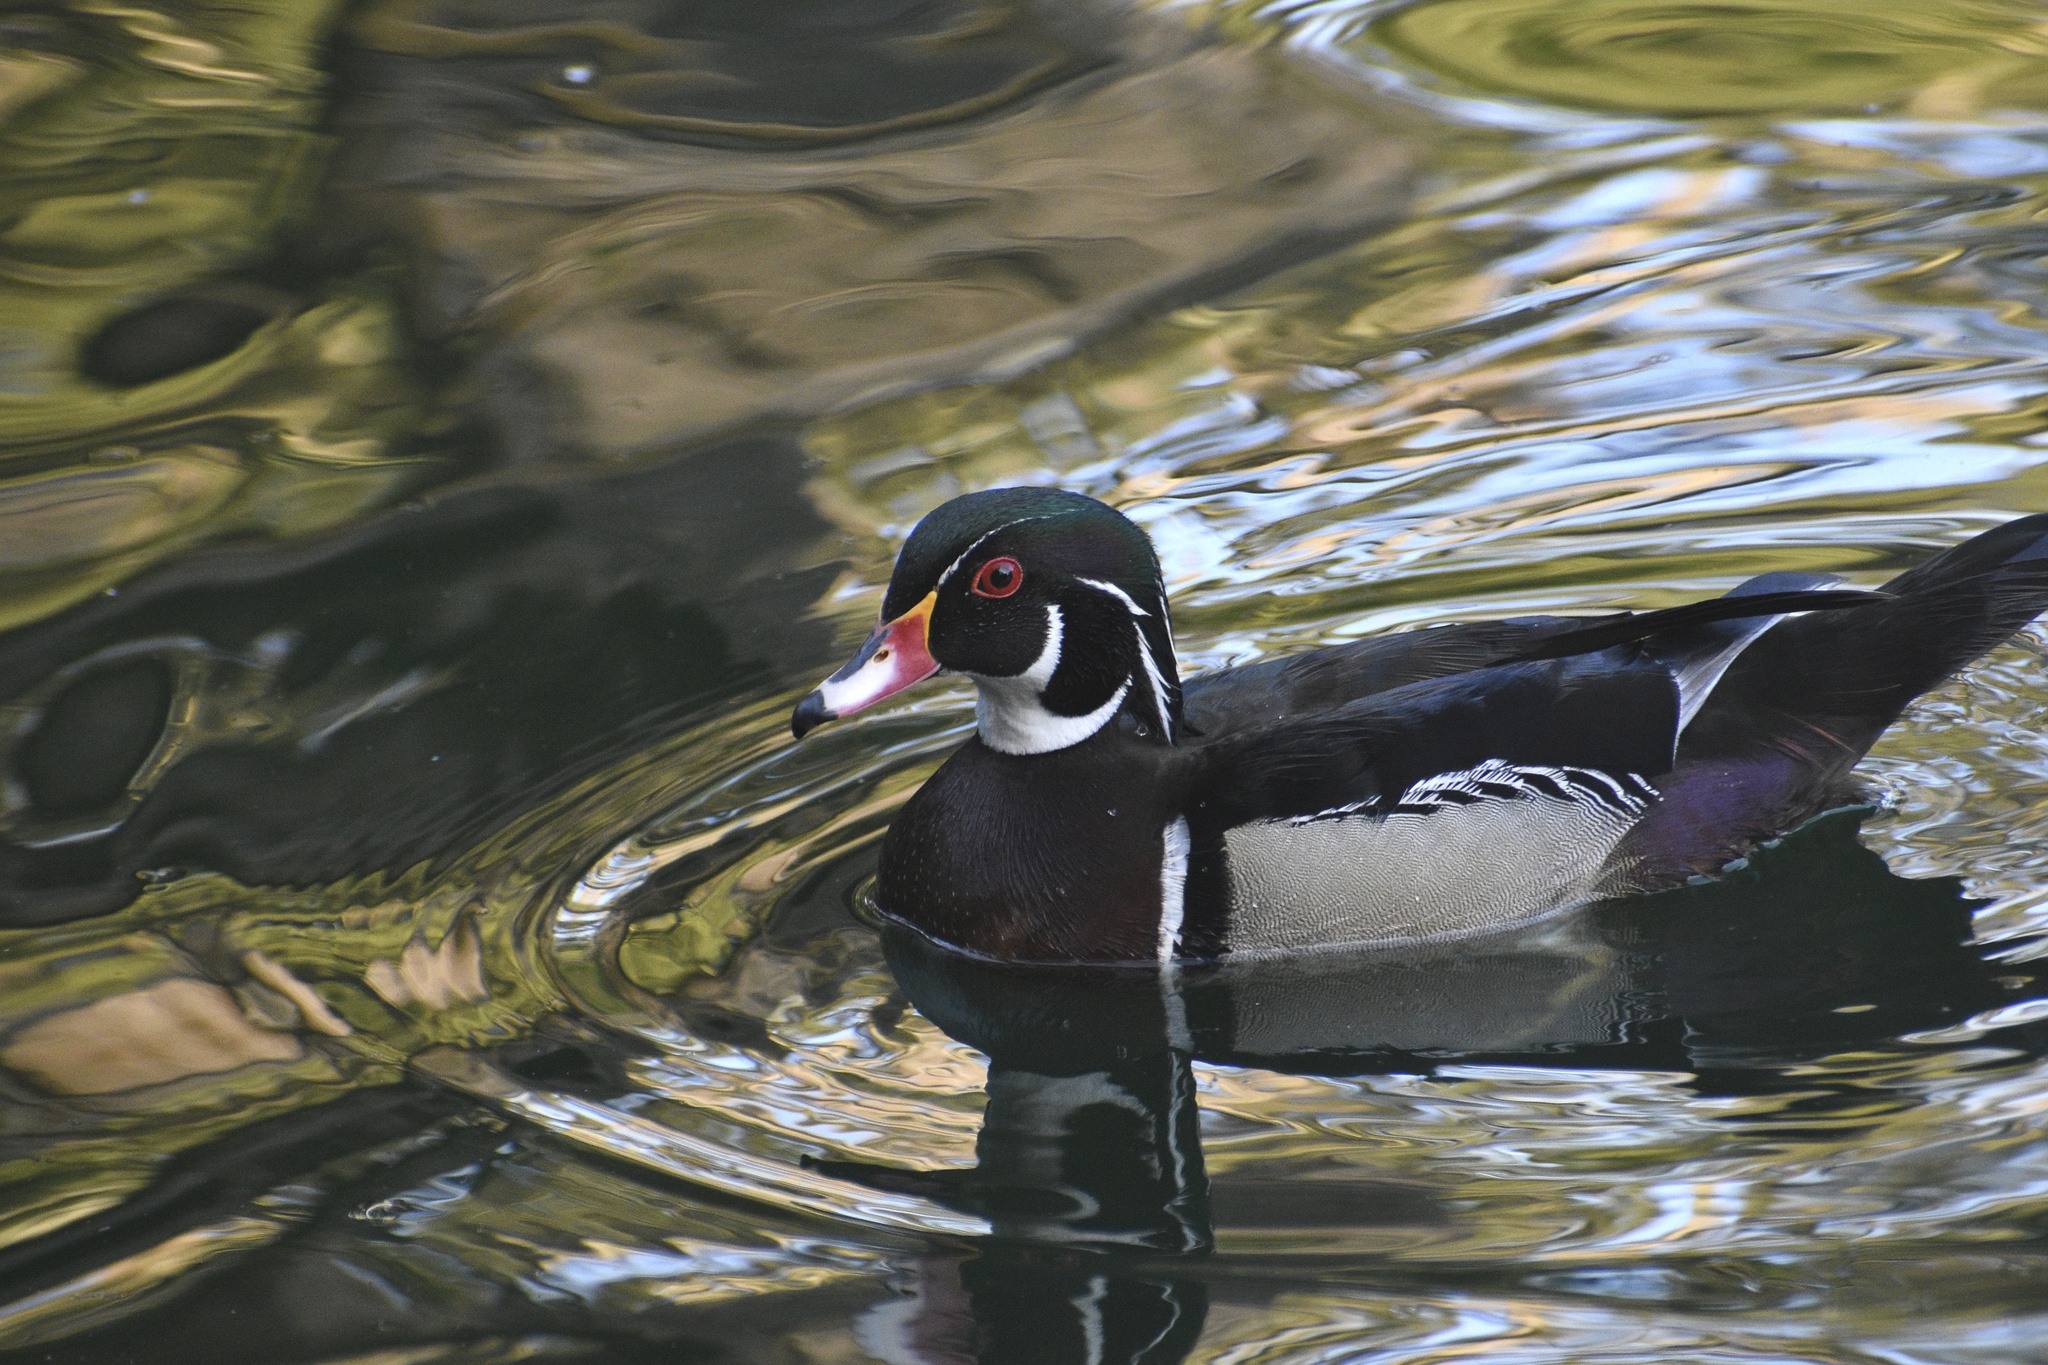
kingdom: Animalia
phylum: Chordata
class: Aves
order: Anseriformes
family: Anatidae
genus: Aix
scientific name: Aix sponsa
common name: Wood duck
